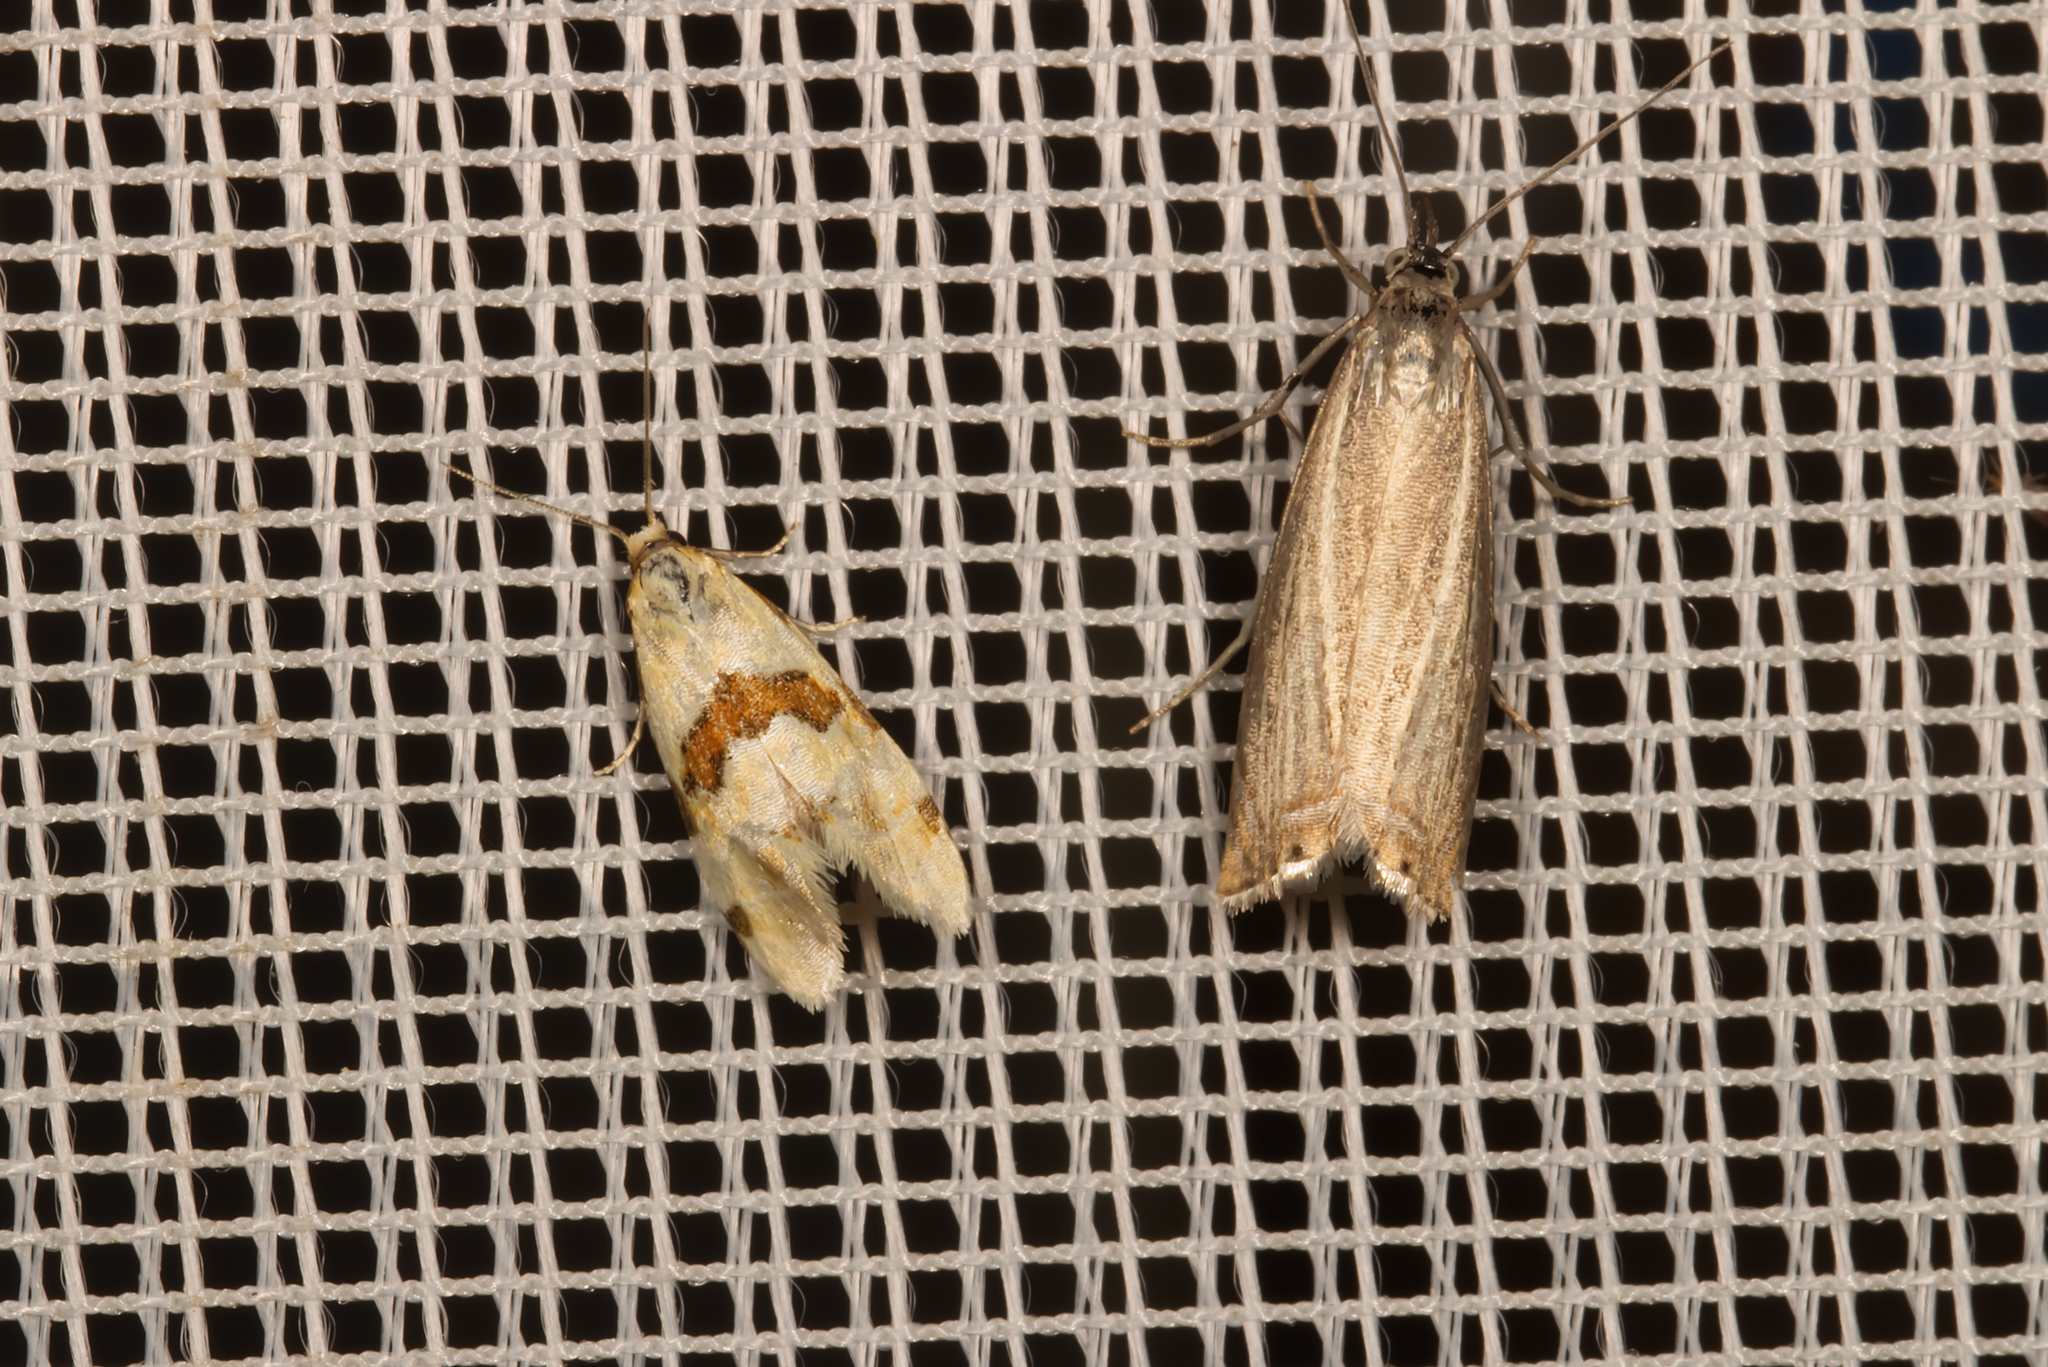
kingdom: Animalia
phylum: Arthropoda
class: Insecta
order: Lepidoptera
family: Crambidae
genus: Chrysoteuchia
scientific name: Chrysoteuchia culmella
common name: Garden grass-veneer
